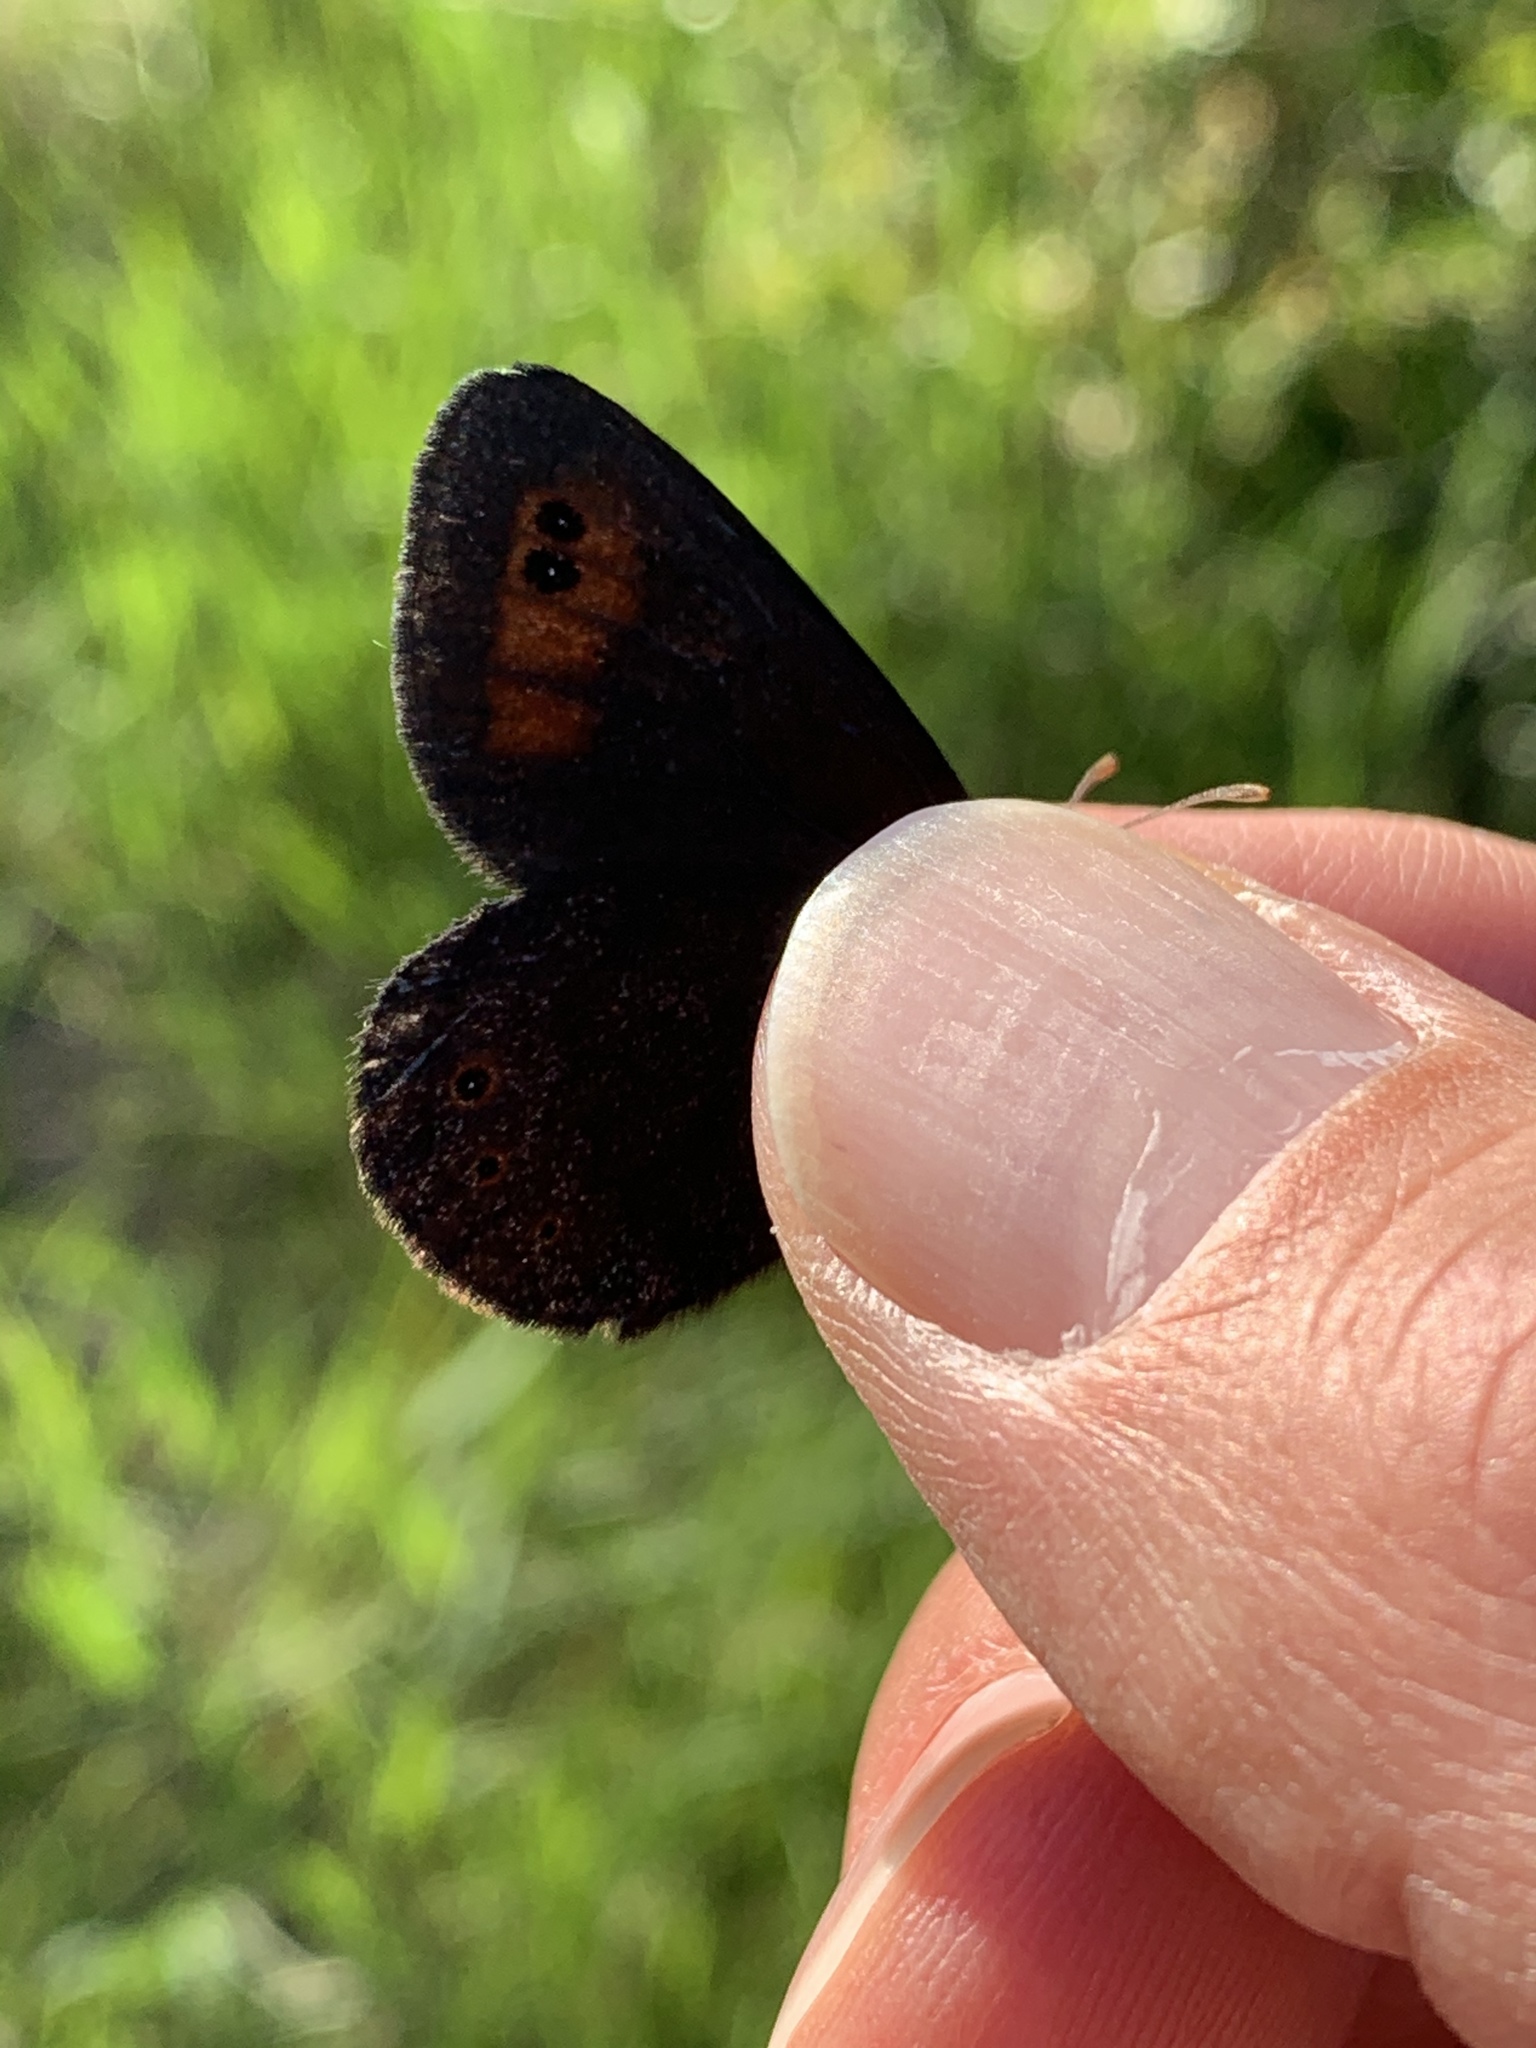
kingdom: Animalia
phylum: Arthropoda
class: Insecta
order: Lepidoptera
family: Nymphalidae
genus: Erebia
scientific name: Erebia epipsodea
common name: Common alpine
